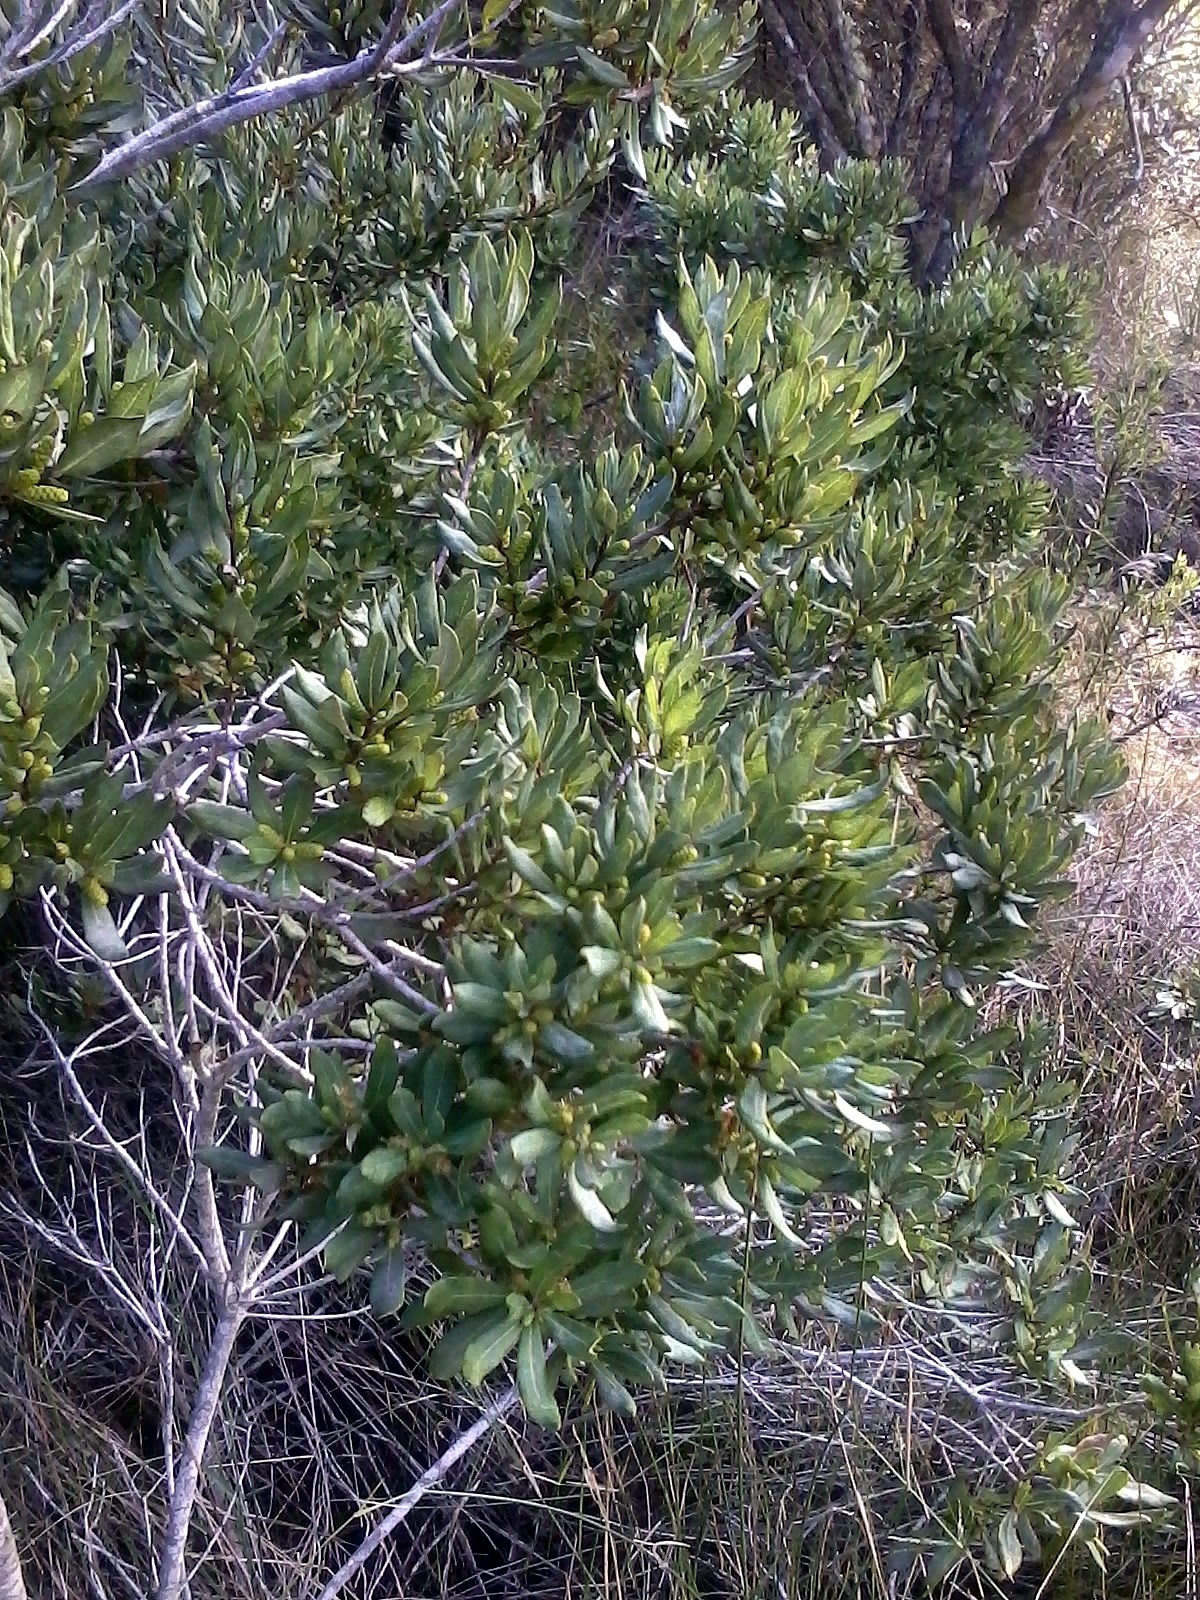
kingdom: Plantae
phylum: Tracheophyta
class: Magnoliopsida
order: Fagales
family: Myricaceae
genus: Morella
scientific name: Morella humilis
